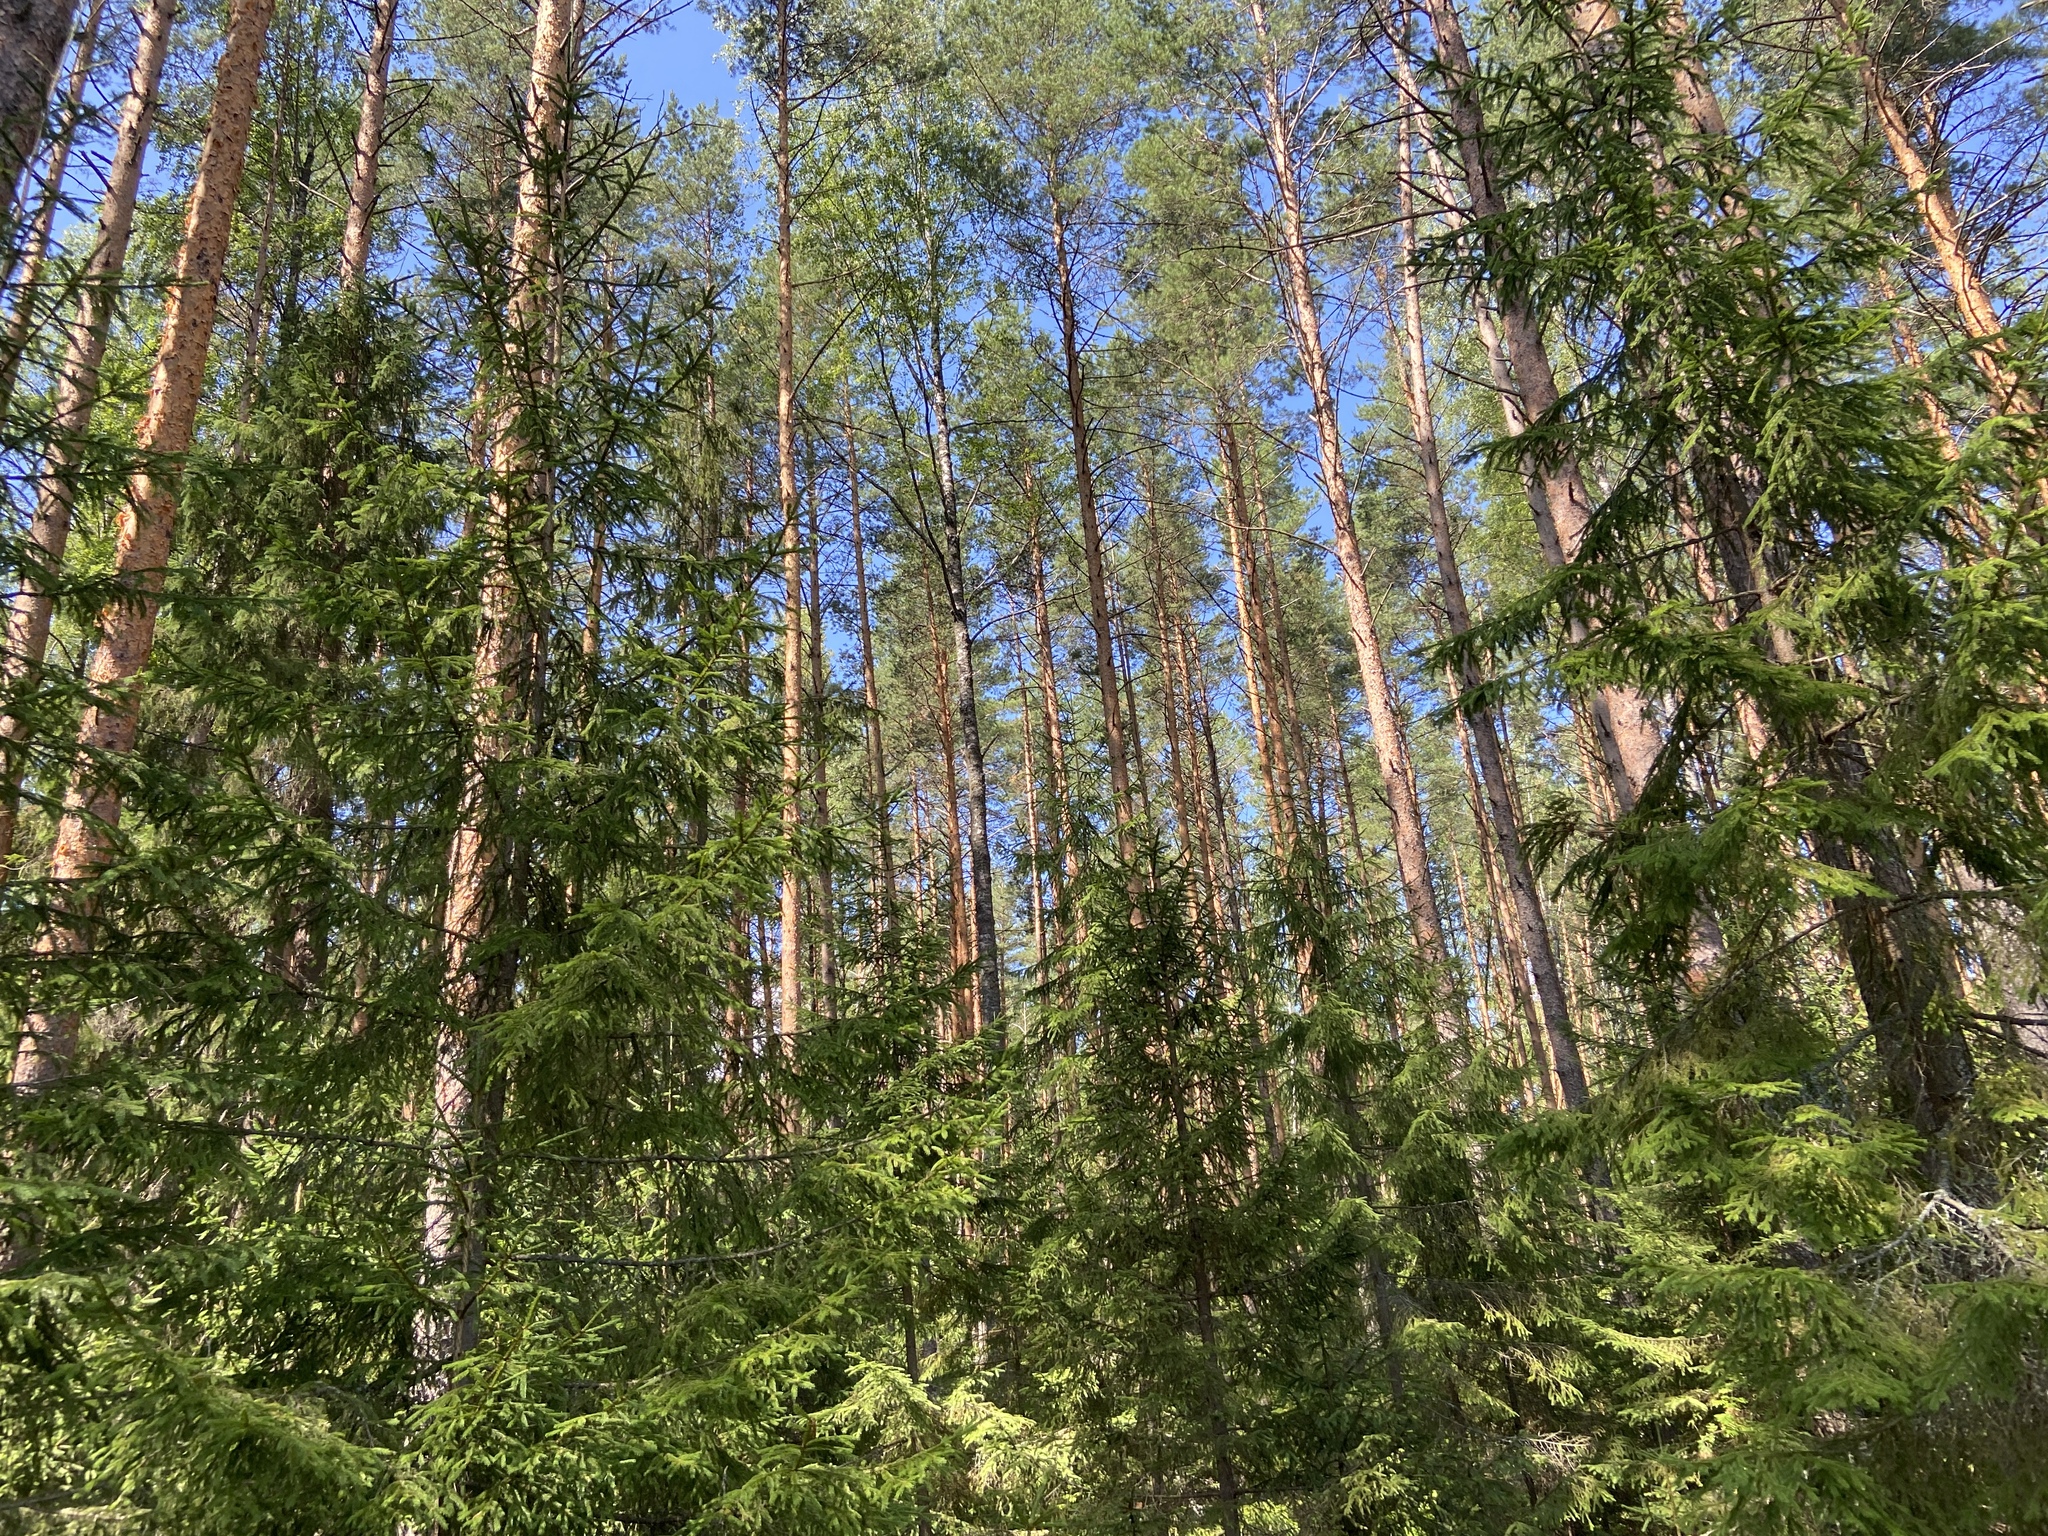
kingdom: Plantae
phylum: Tracheophyta
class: Pinopsida
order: Pinales
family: Pinaceae
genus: Pinus
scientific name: Pinus sylvestris
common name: Scots pine
